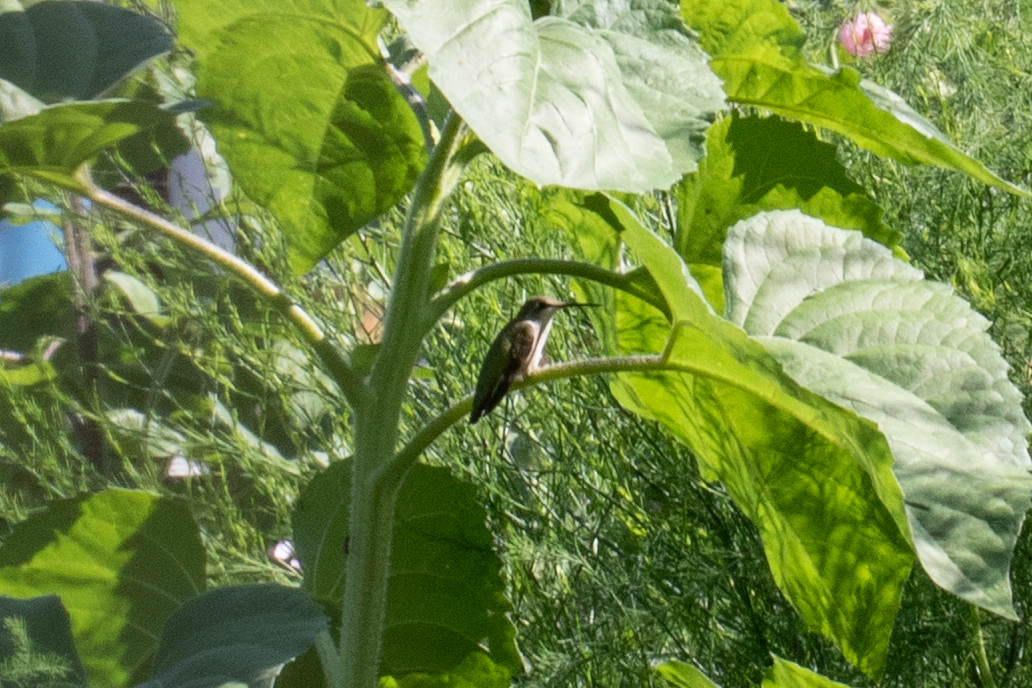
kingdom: Animalia
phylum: Chordata
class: Aves
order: Apodiformes
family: Trochilidae
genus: Archilochus
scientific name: Archilochus colubris
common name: Ruby-throated hummingbird
